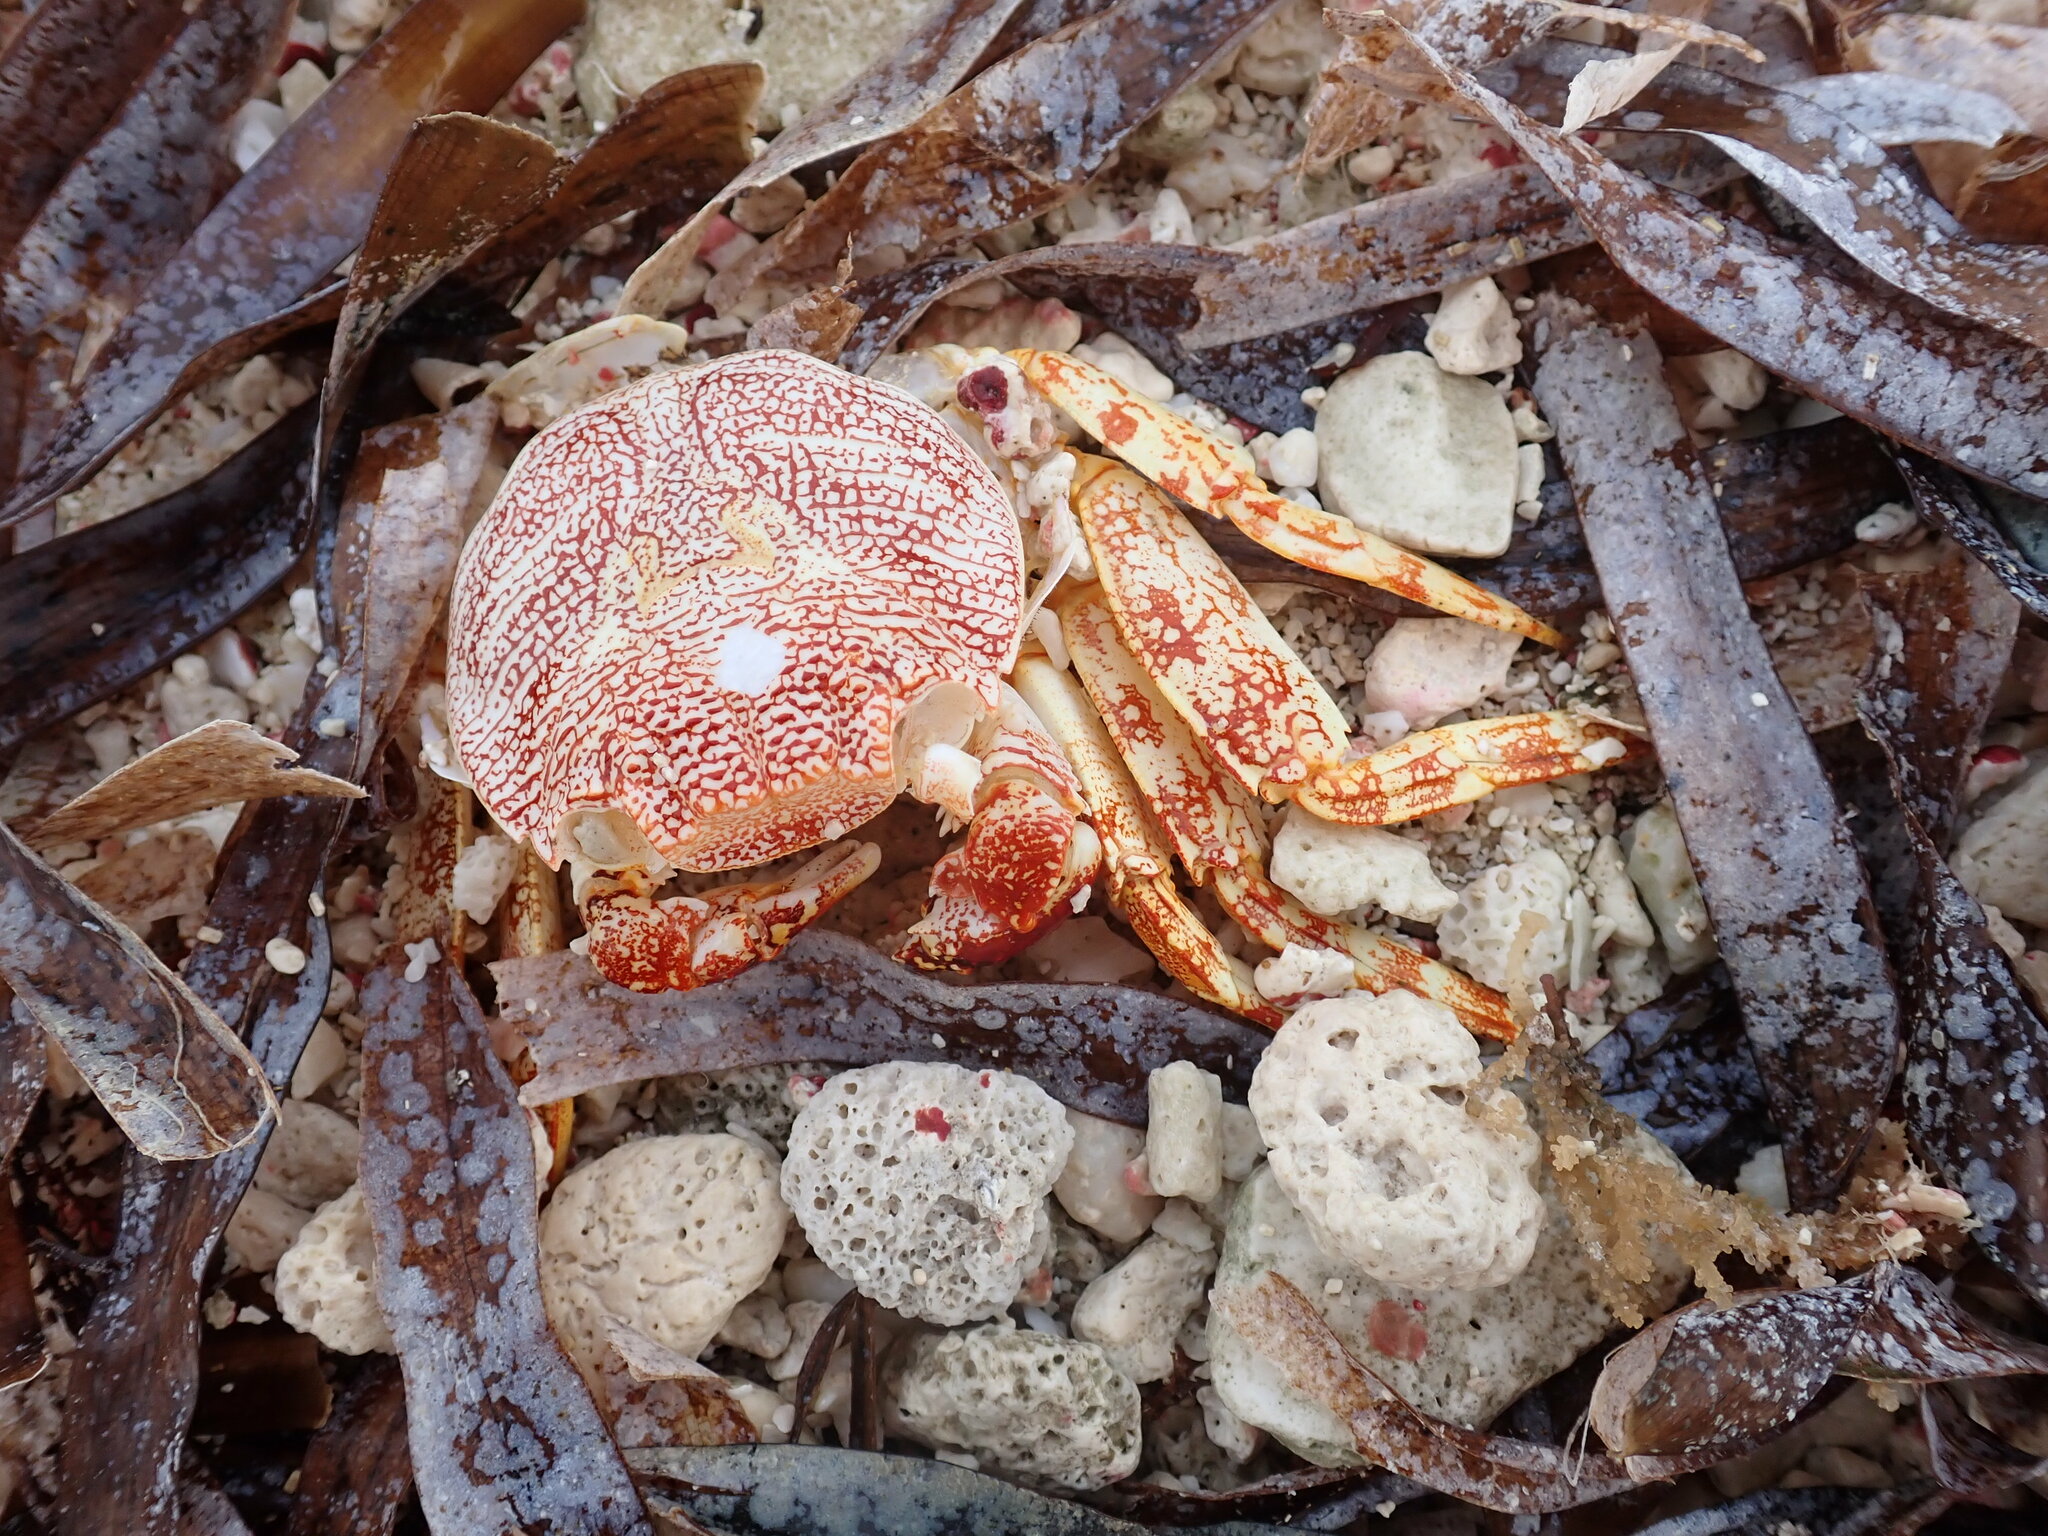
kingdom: Animalia
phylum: Arthropoda
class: Malacostraca
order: Decapoda
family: Grapsidae
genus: Grapsus
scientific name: Grapsus grapsus
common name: Sally lightfoot
